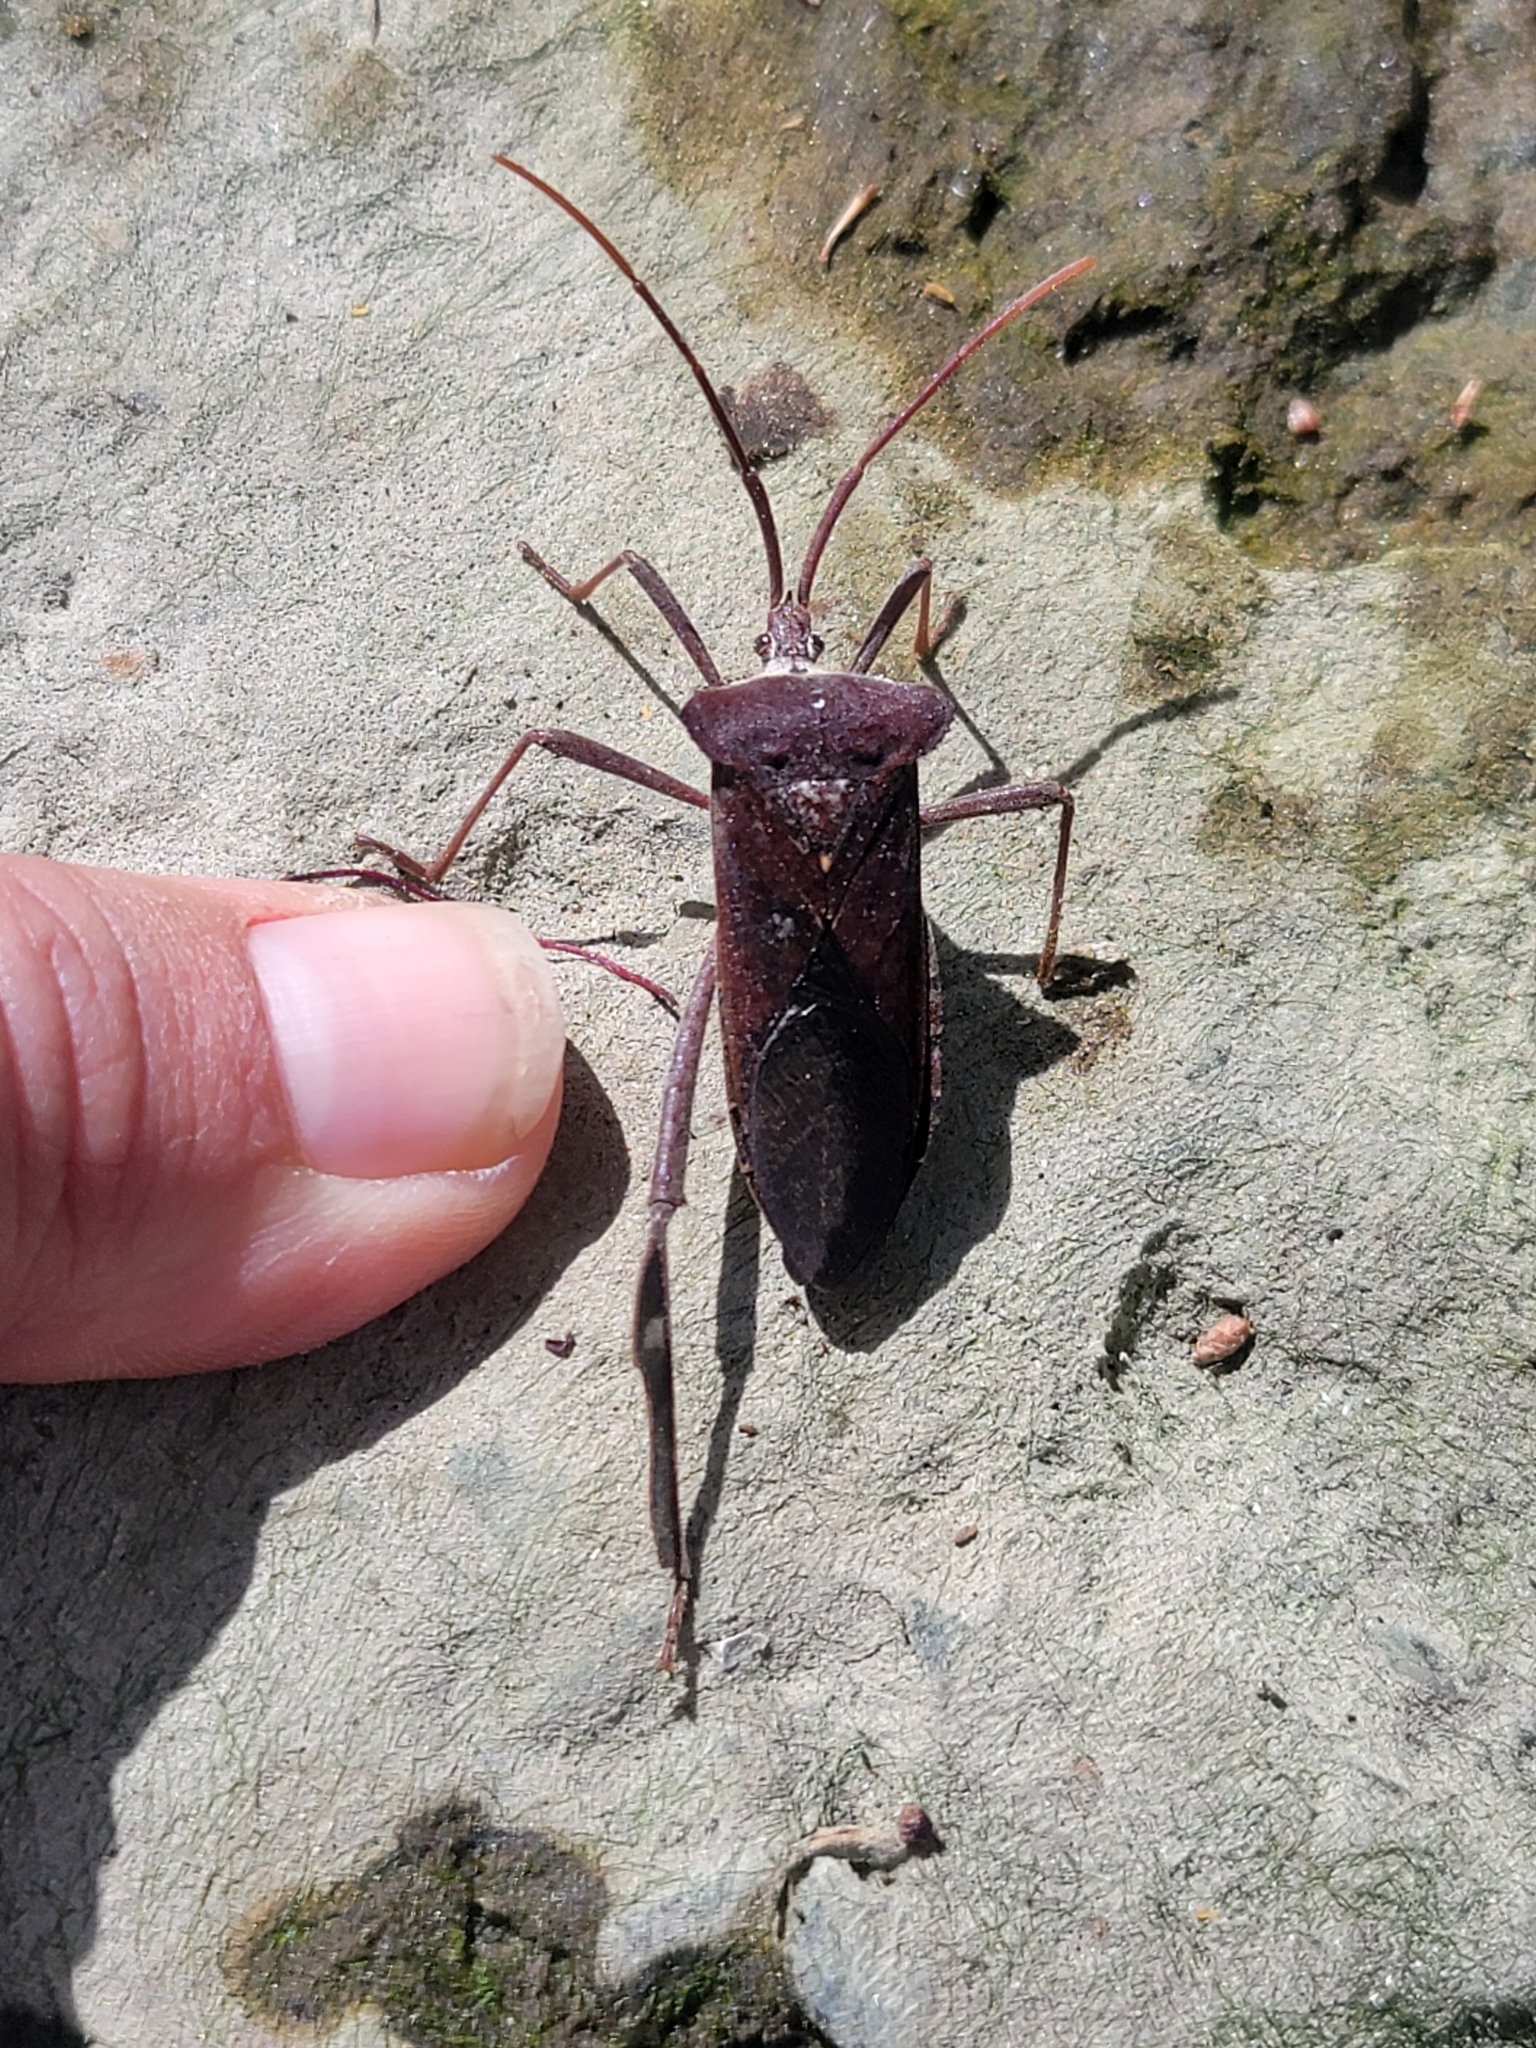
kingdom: Animalia
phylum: Arthropoda
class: Insecta
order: Hemiptera
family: Coreidae
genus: Acanthocephala
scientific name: Acanthocephala declivis
